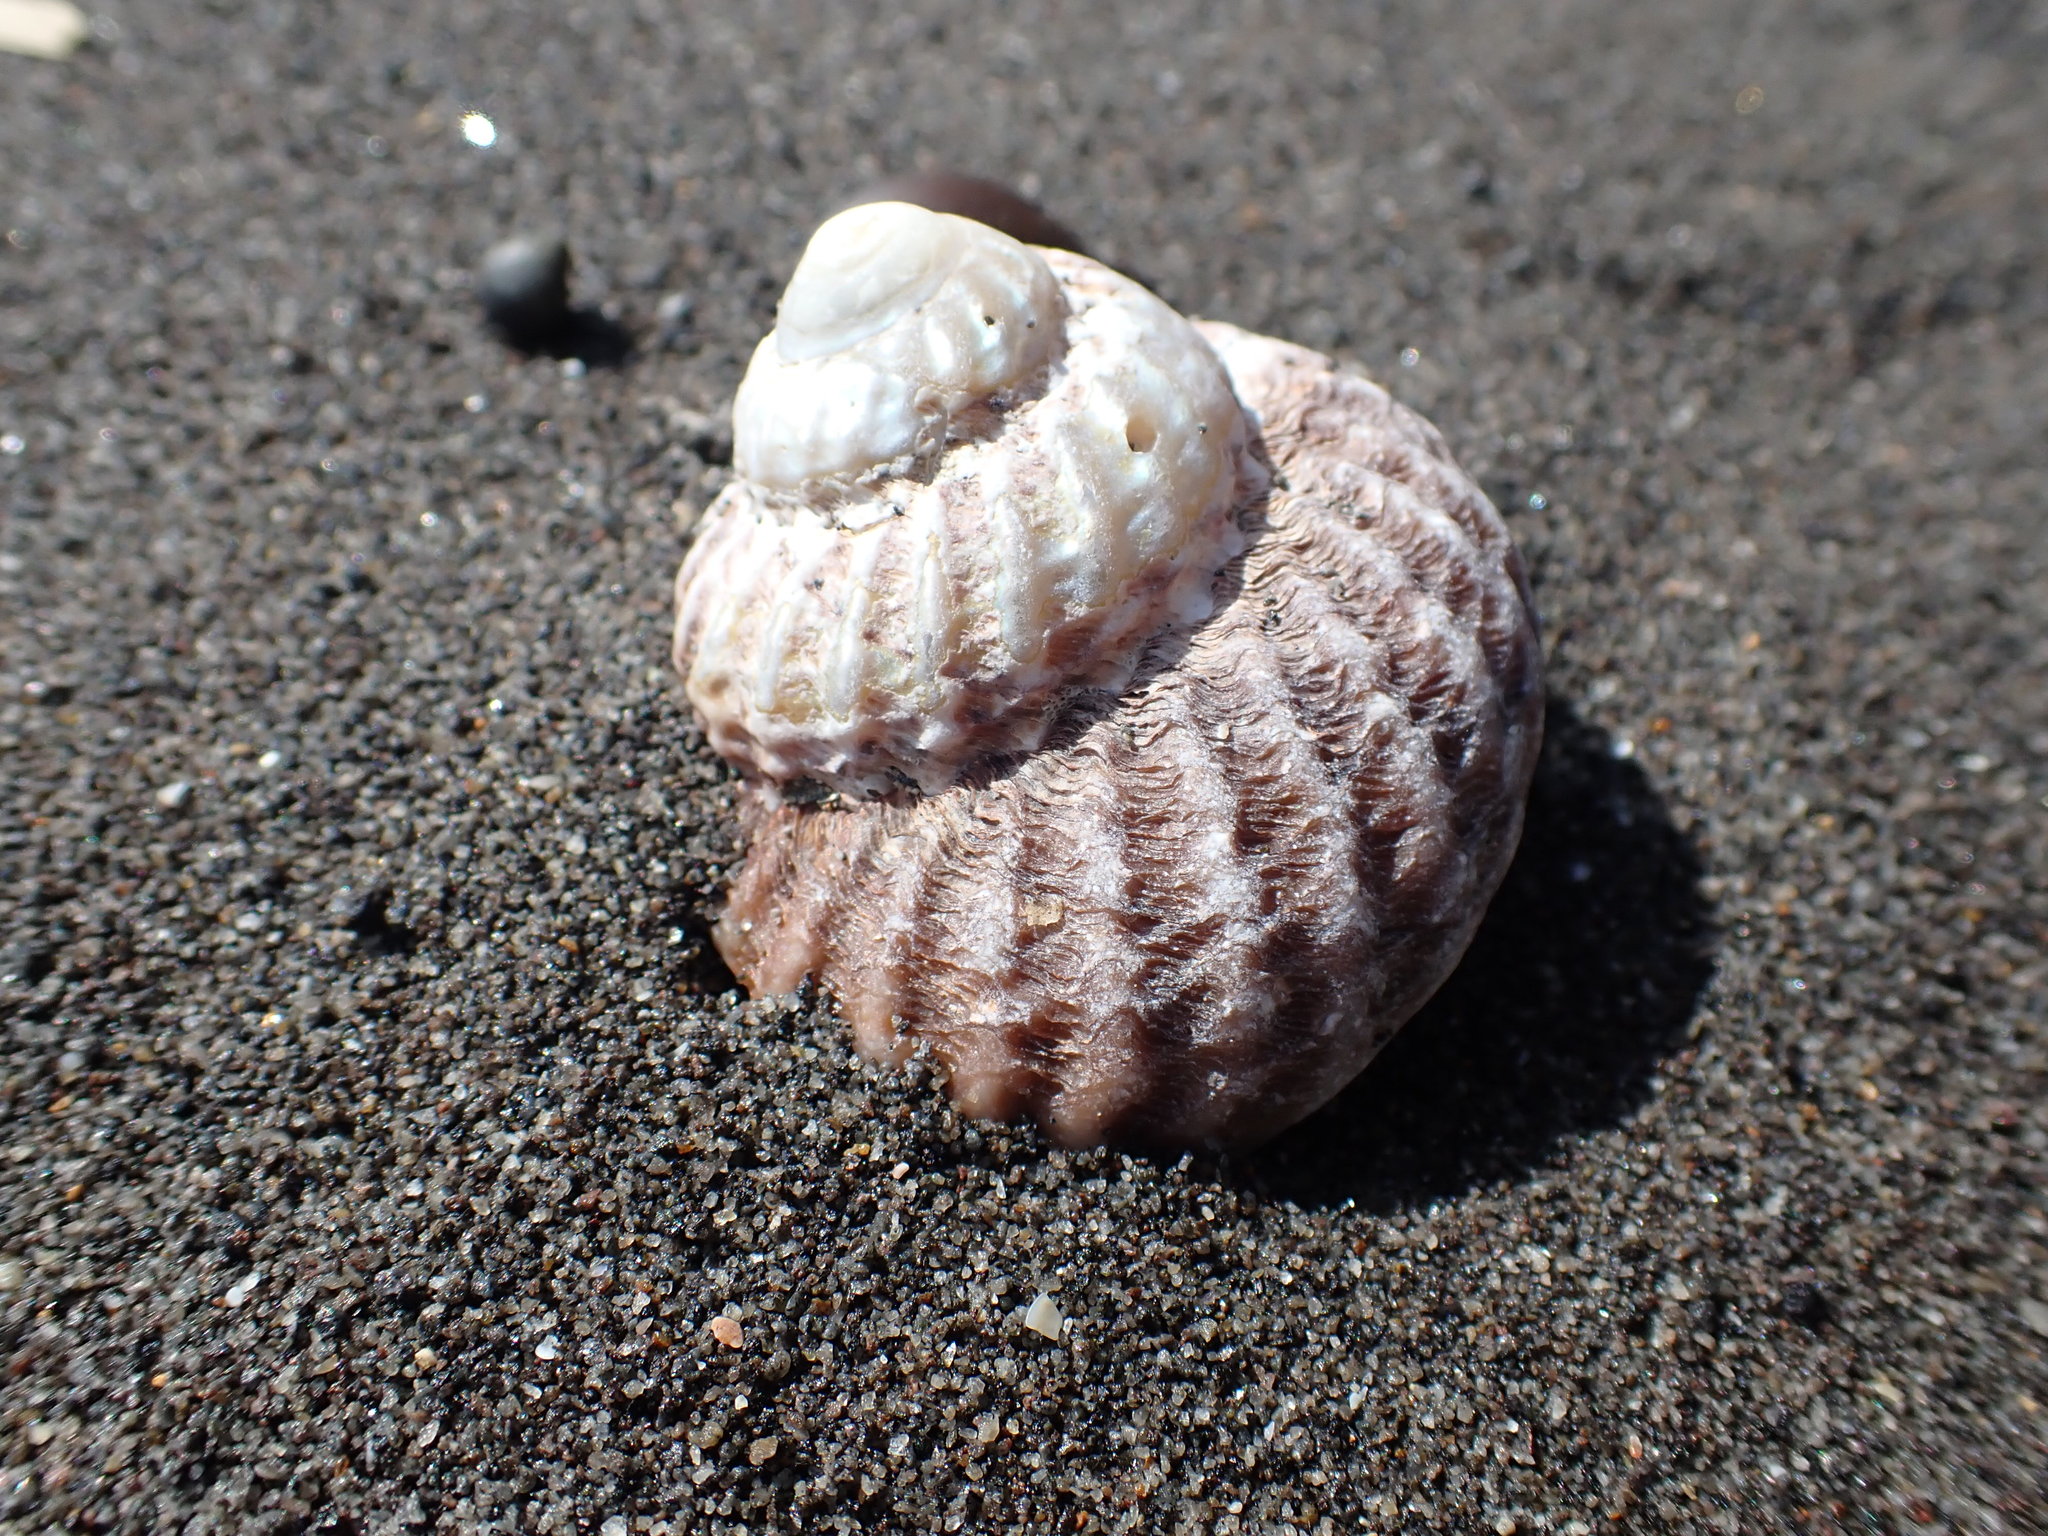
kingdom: Animalia
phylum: Mollusca
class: Gastropoda
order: Trochida
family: Turbinidae
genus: Cookia
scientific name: Cookia sulcata
